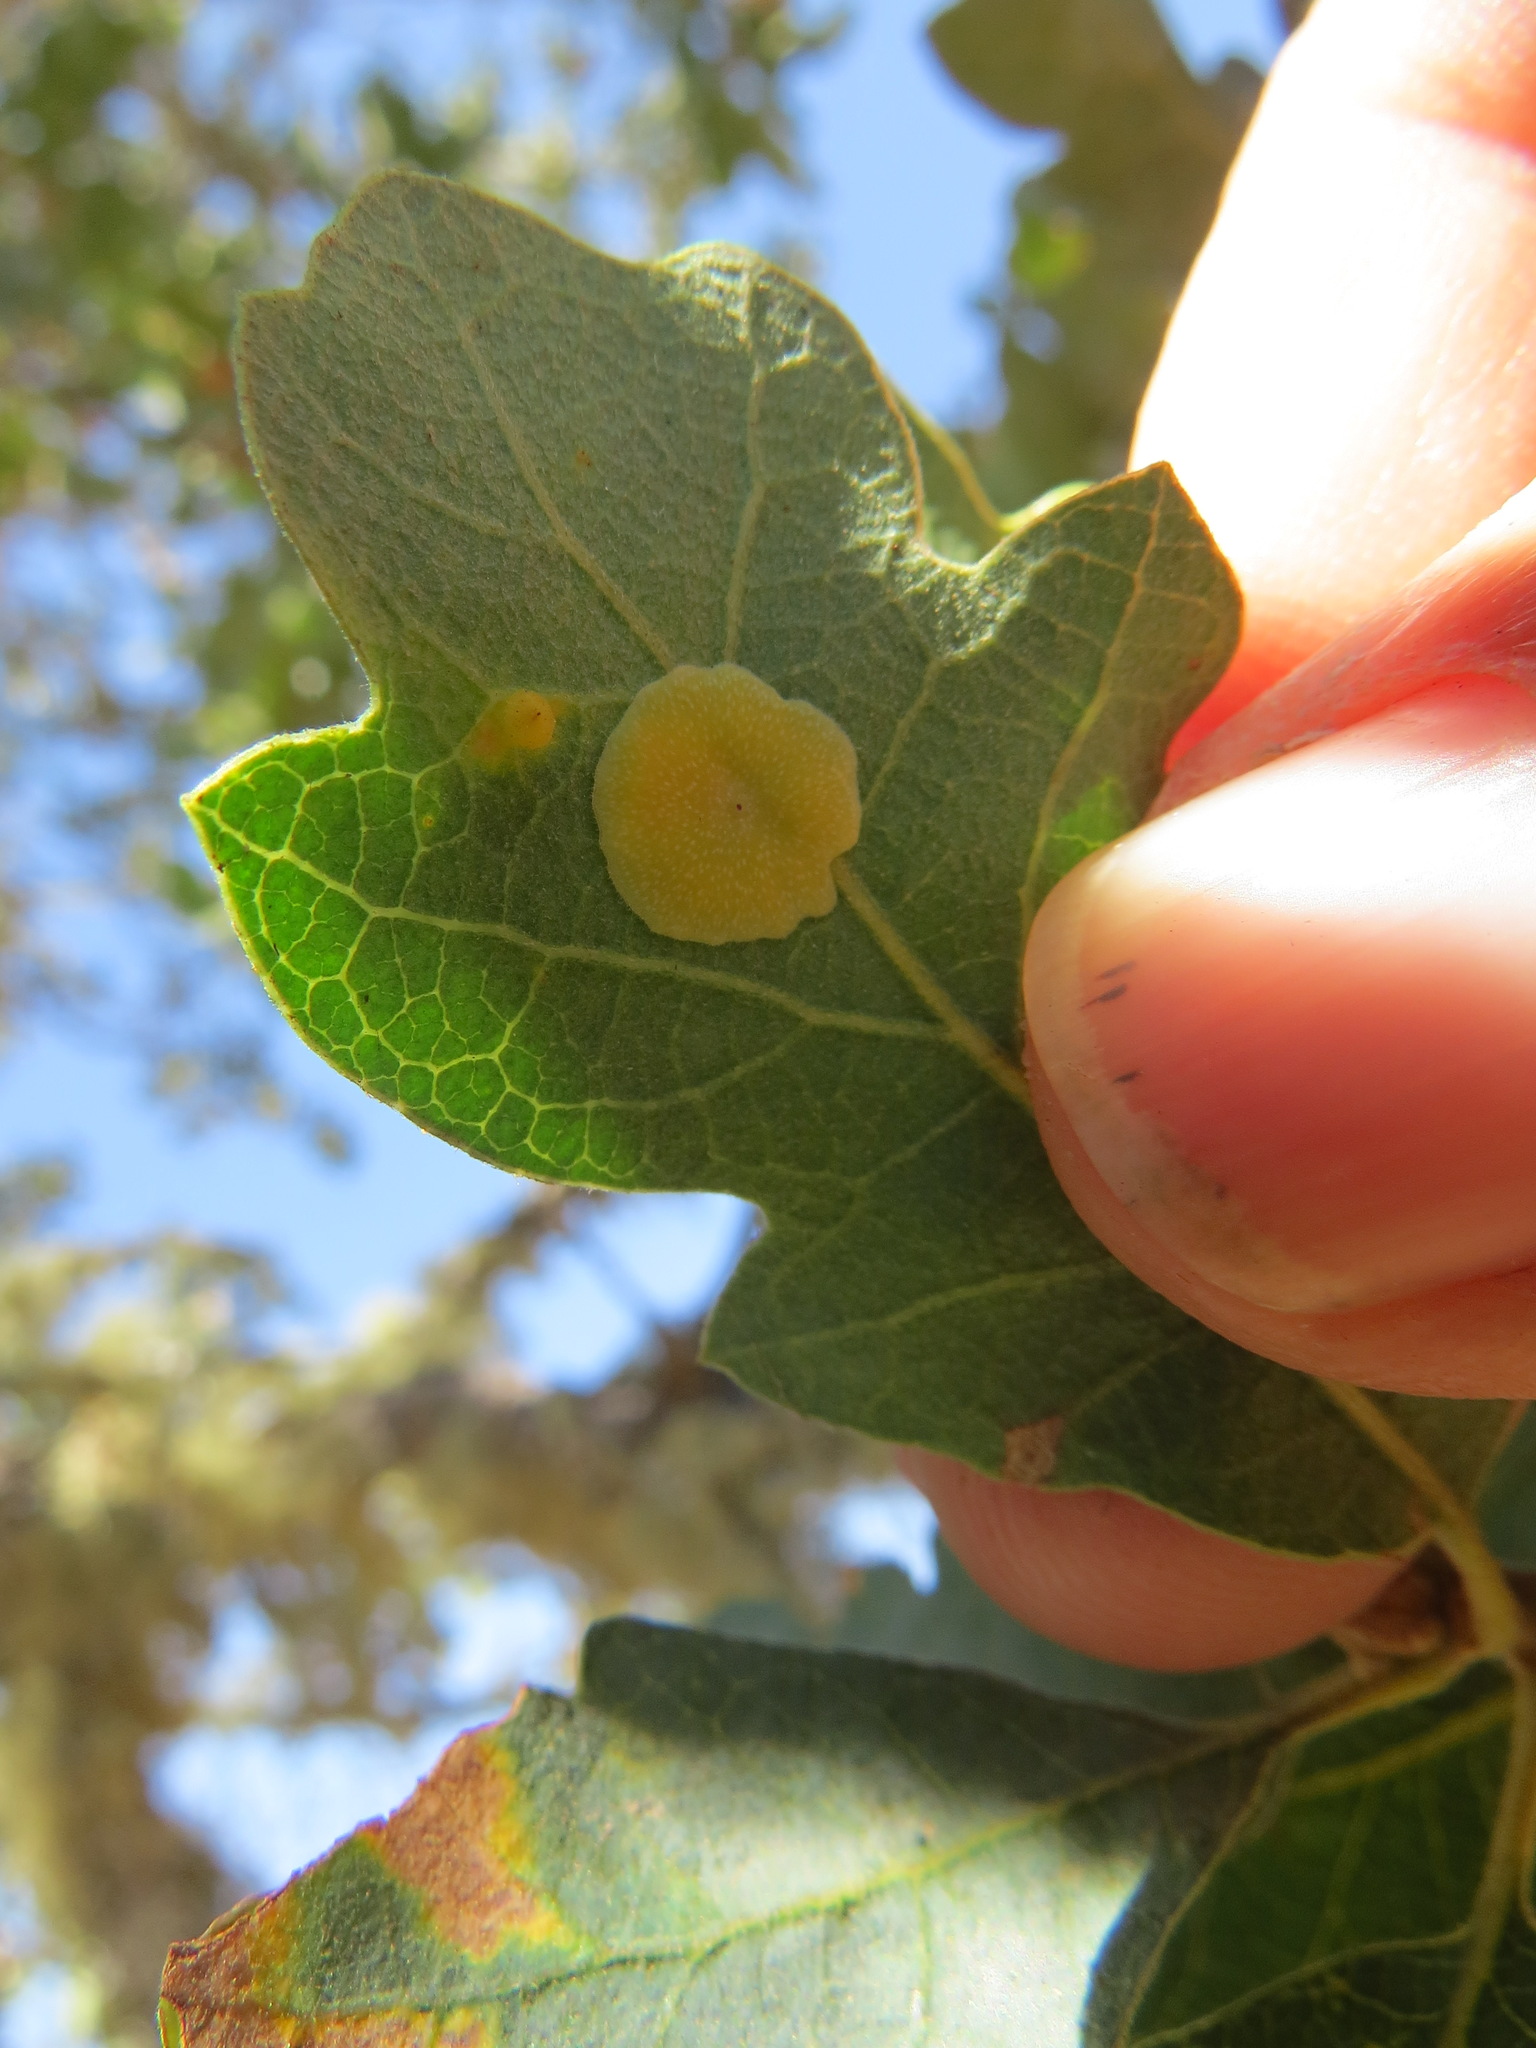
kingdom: Animalia
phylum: Arthropoda
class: Insecta
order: Hymenoptera
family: Cynipidae
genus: Andricus
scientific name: Andricus
